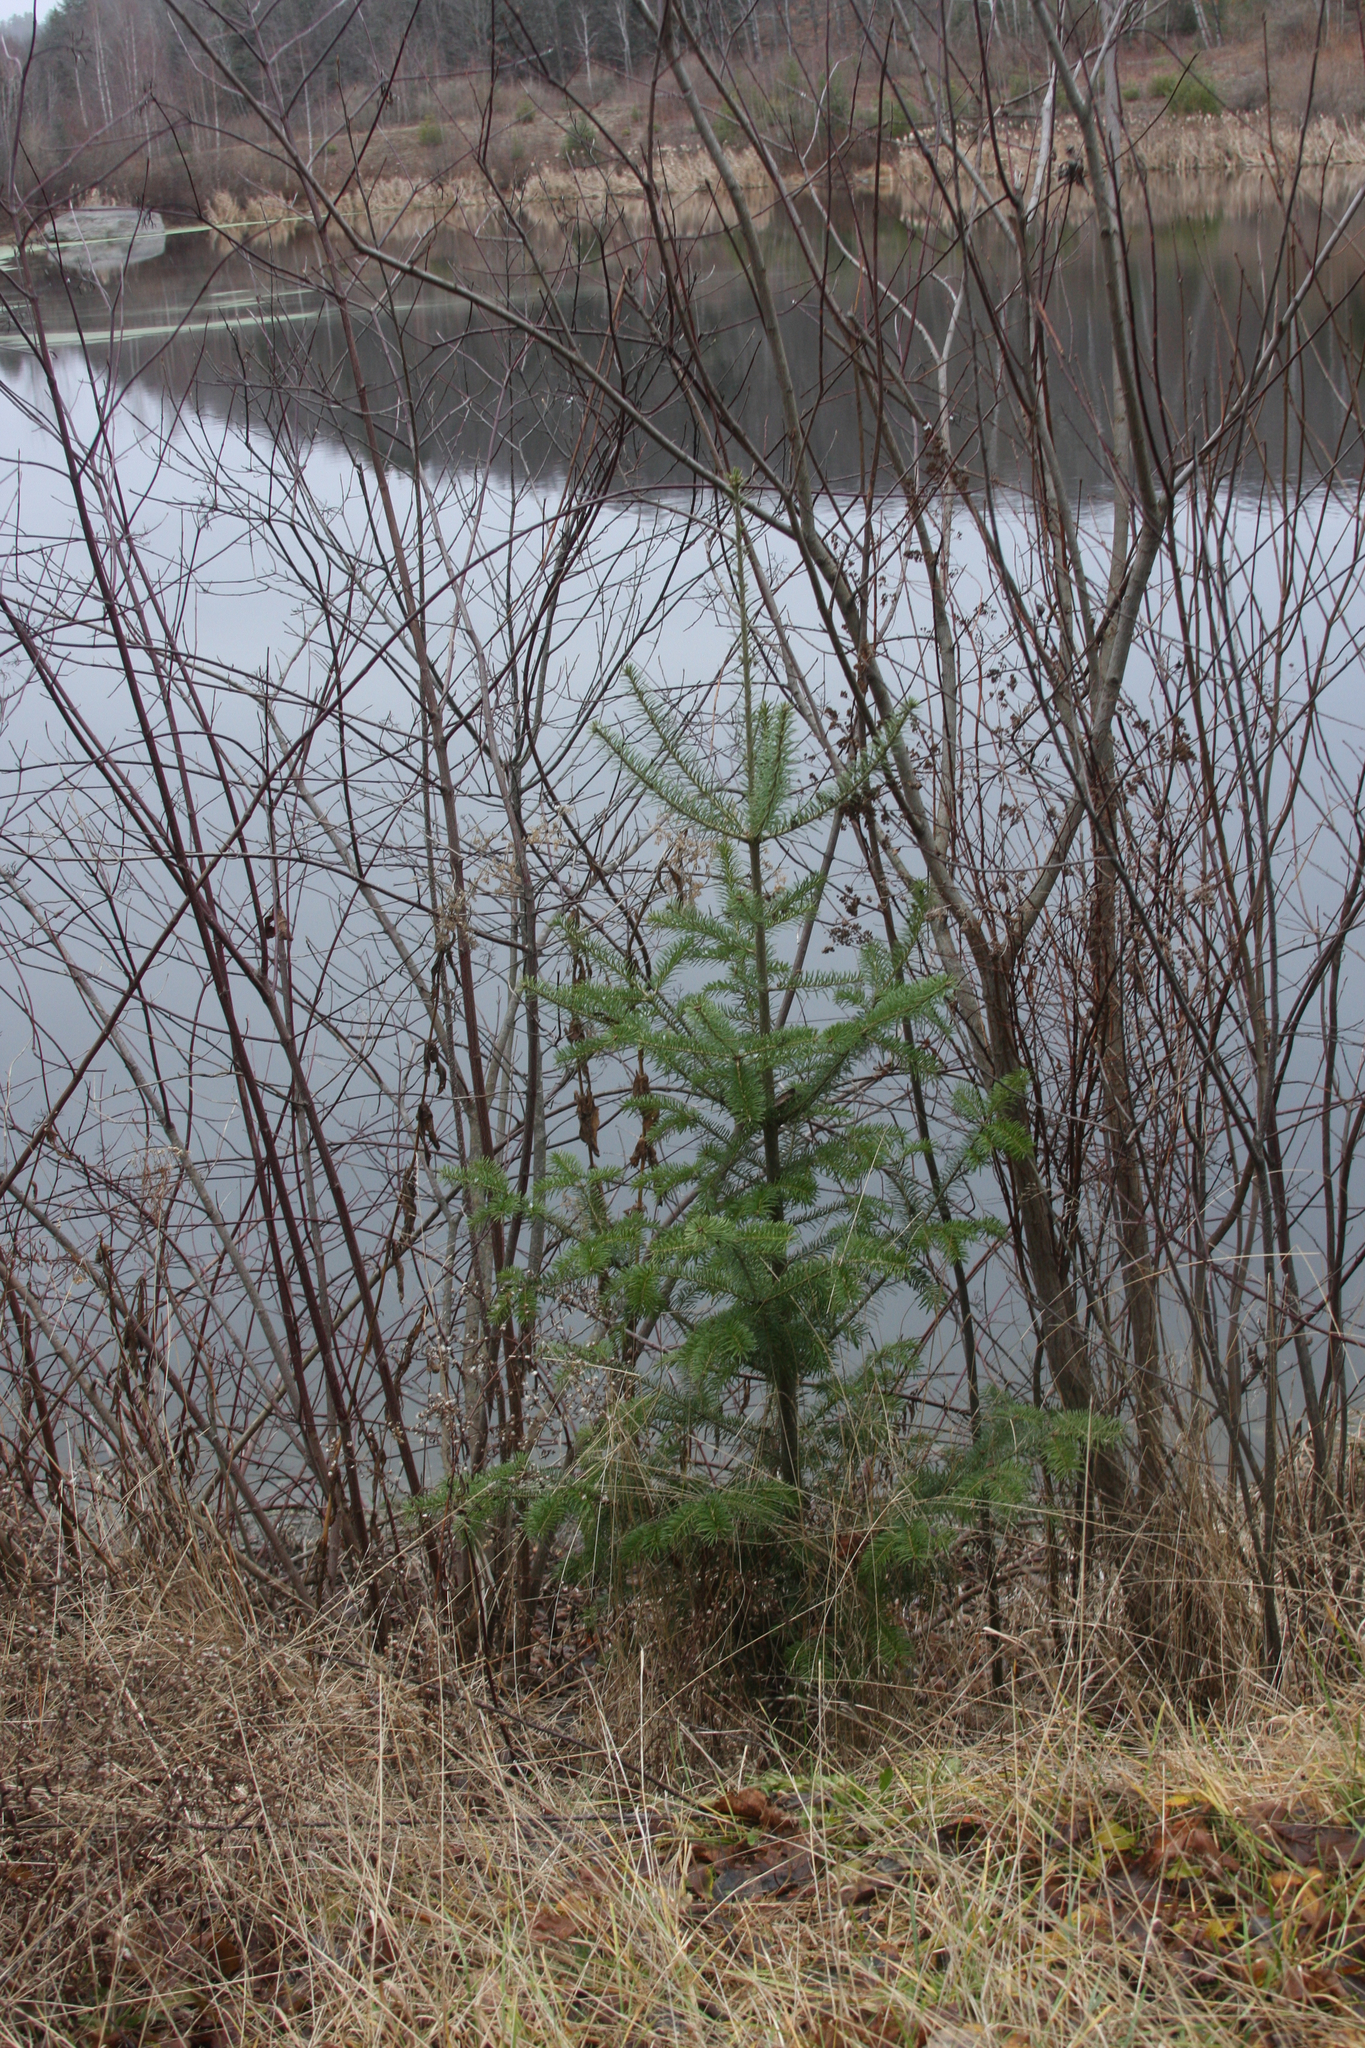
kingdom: Plantae
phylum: Tracheophyta
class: Pinopsida
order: Pinales
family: Pinaceae
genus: Abies
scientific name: Abies balsamea
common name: Balsam fir
